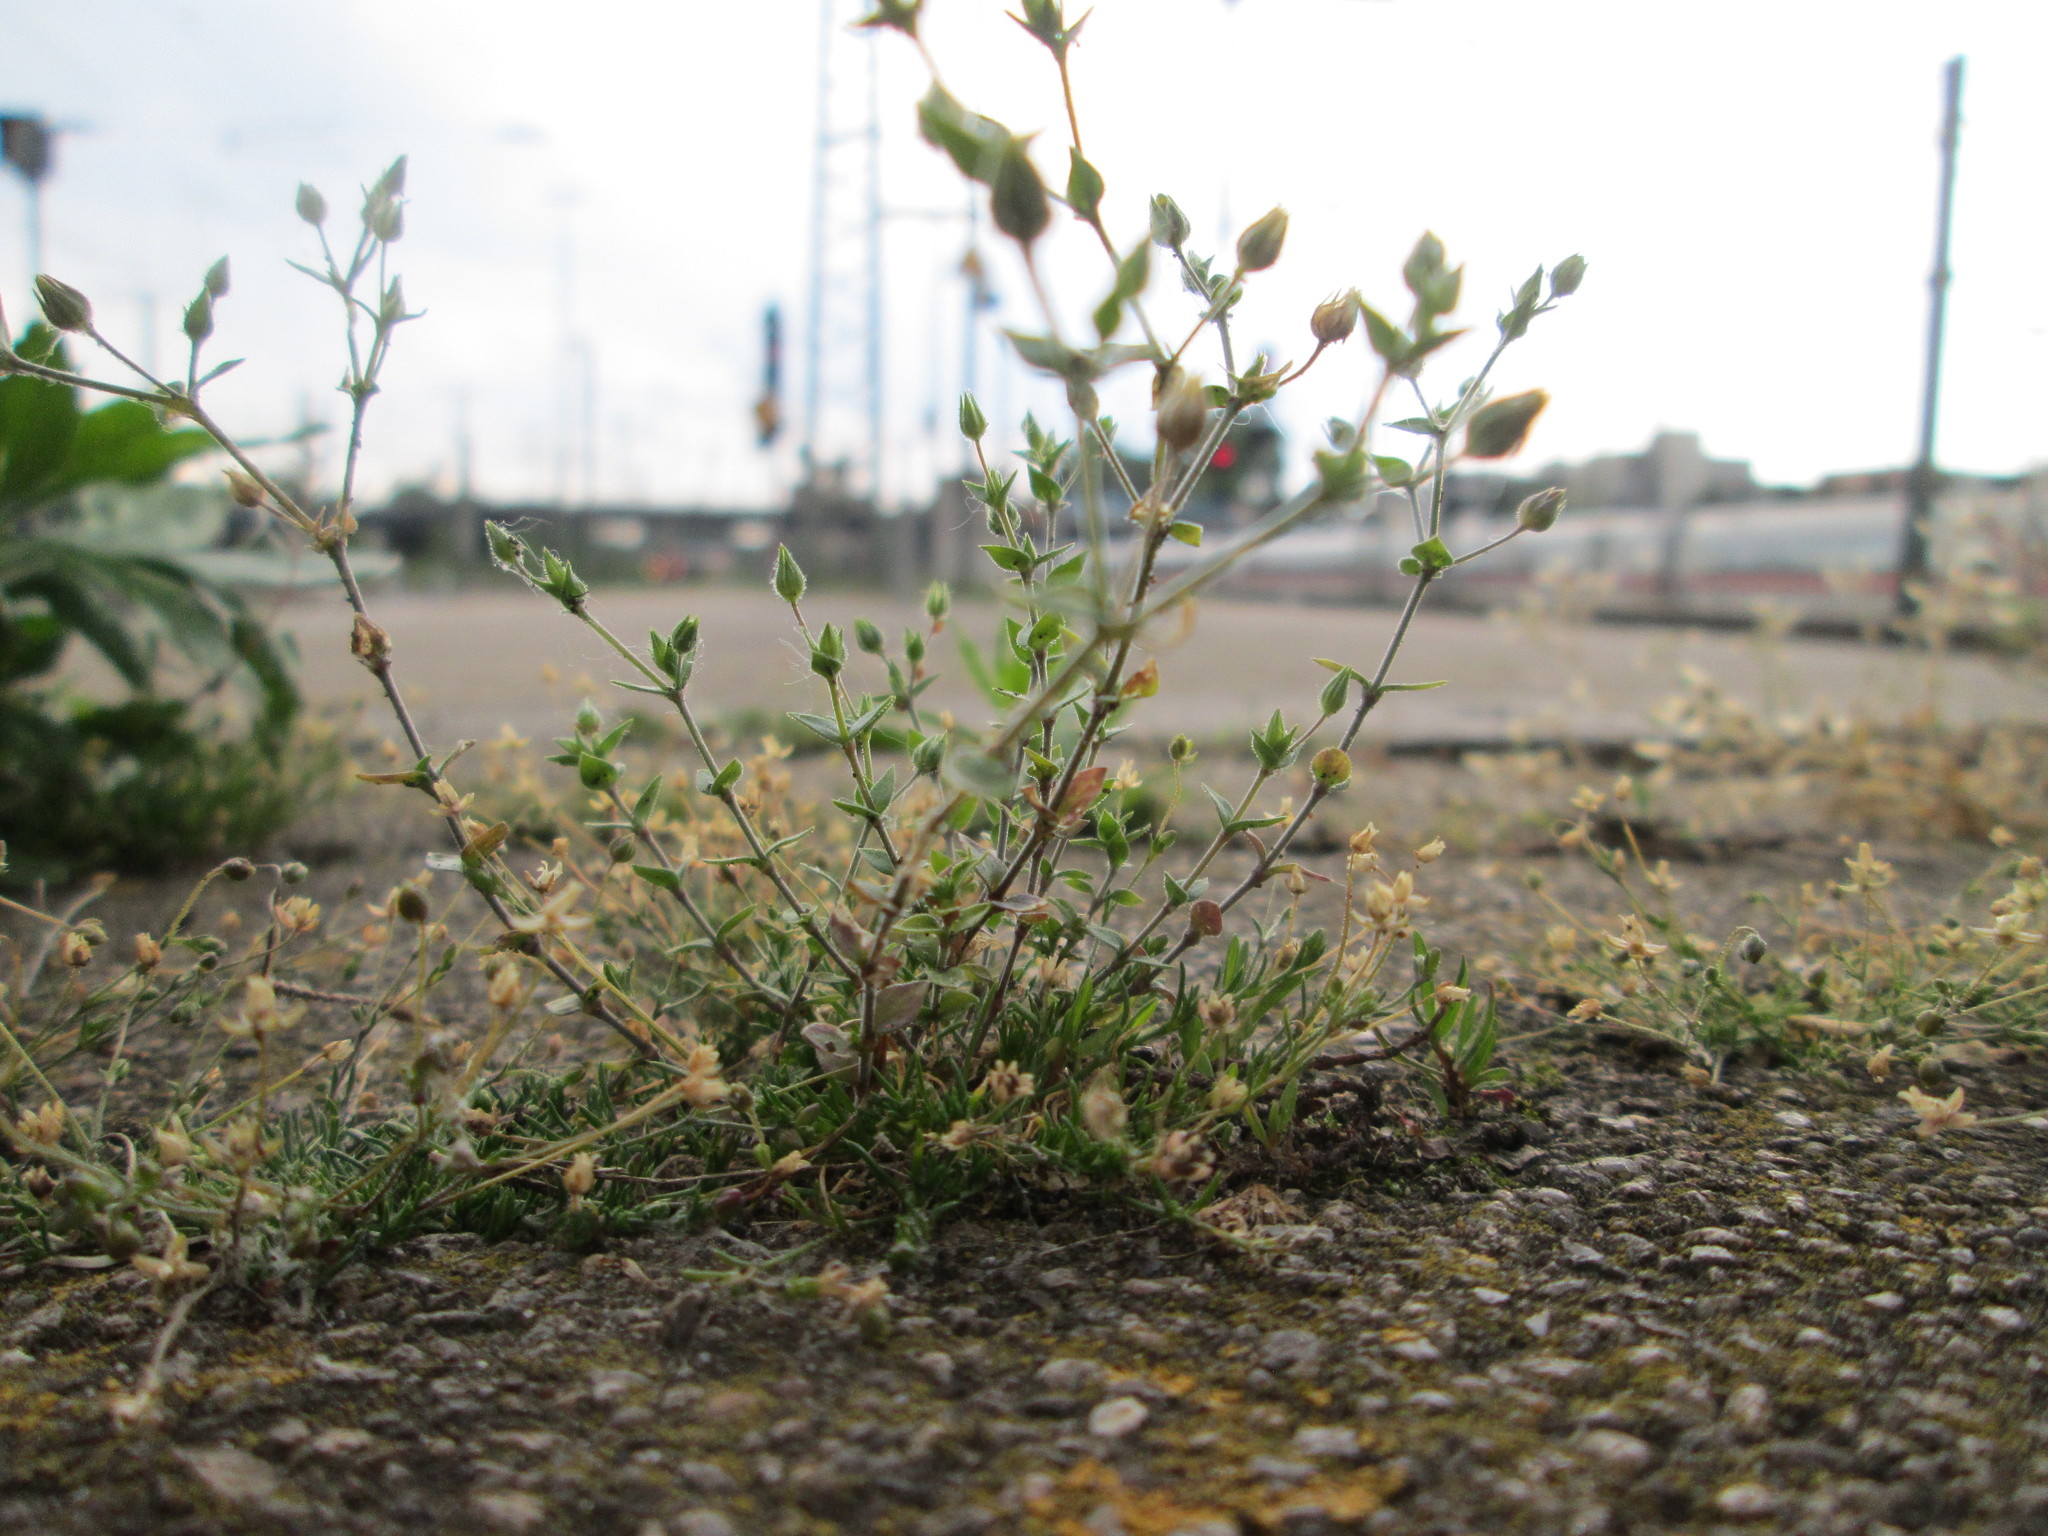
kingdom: Plantae
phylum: Tracheophyta
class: Magnoliopsida
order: Caryophyllales
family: Caryophyllaceae
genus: Arenaria
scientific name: Arenaria serpyllifolia
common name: Thyme-leaved sandwort
